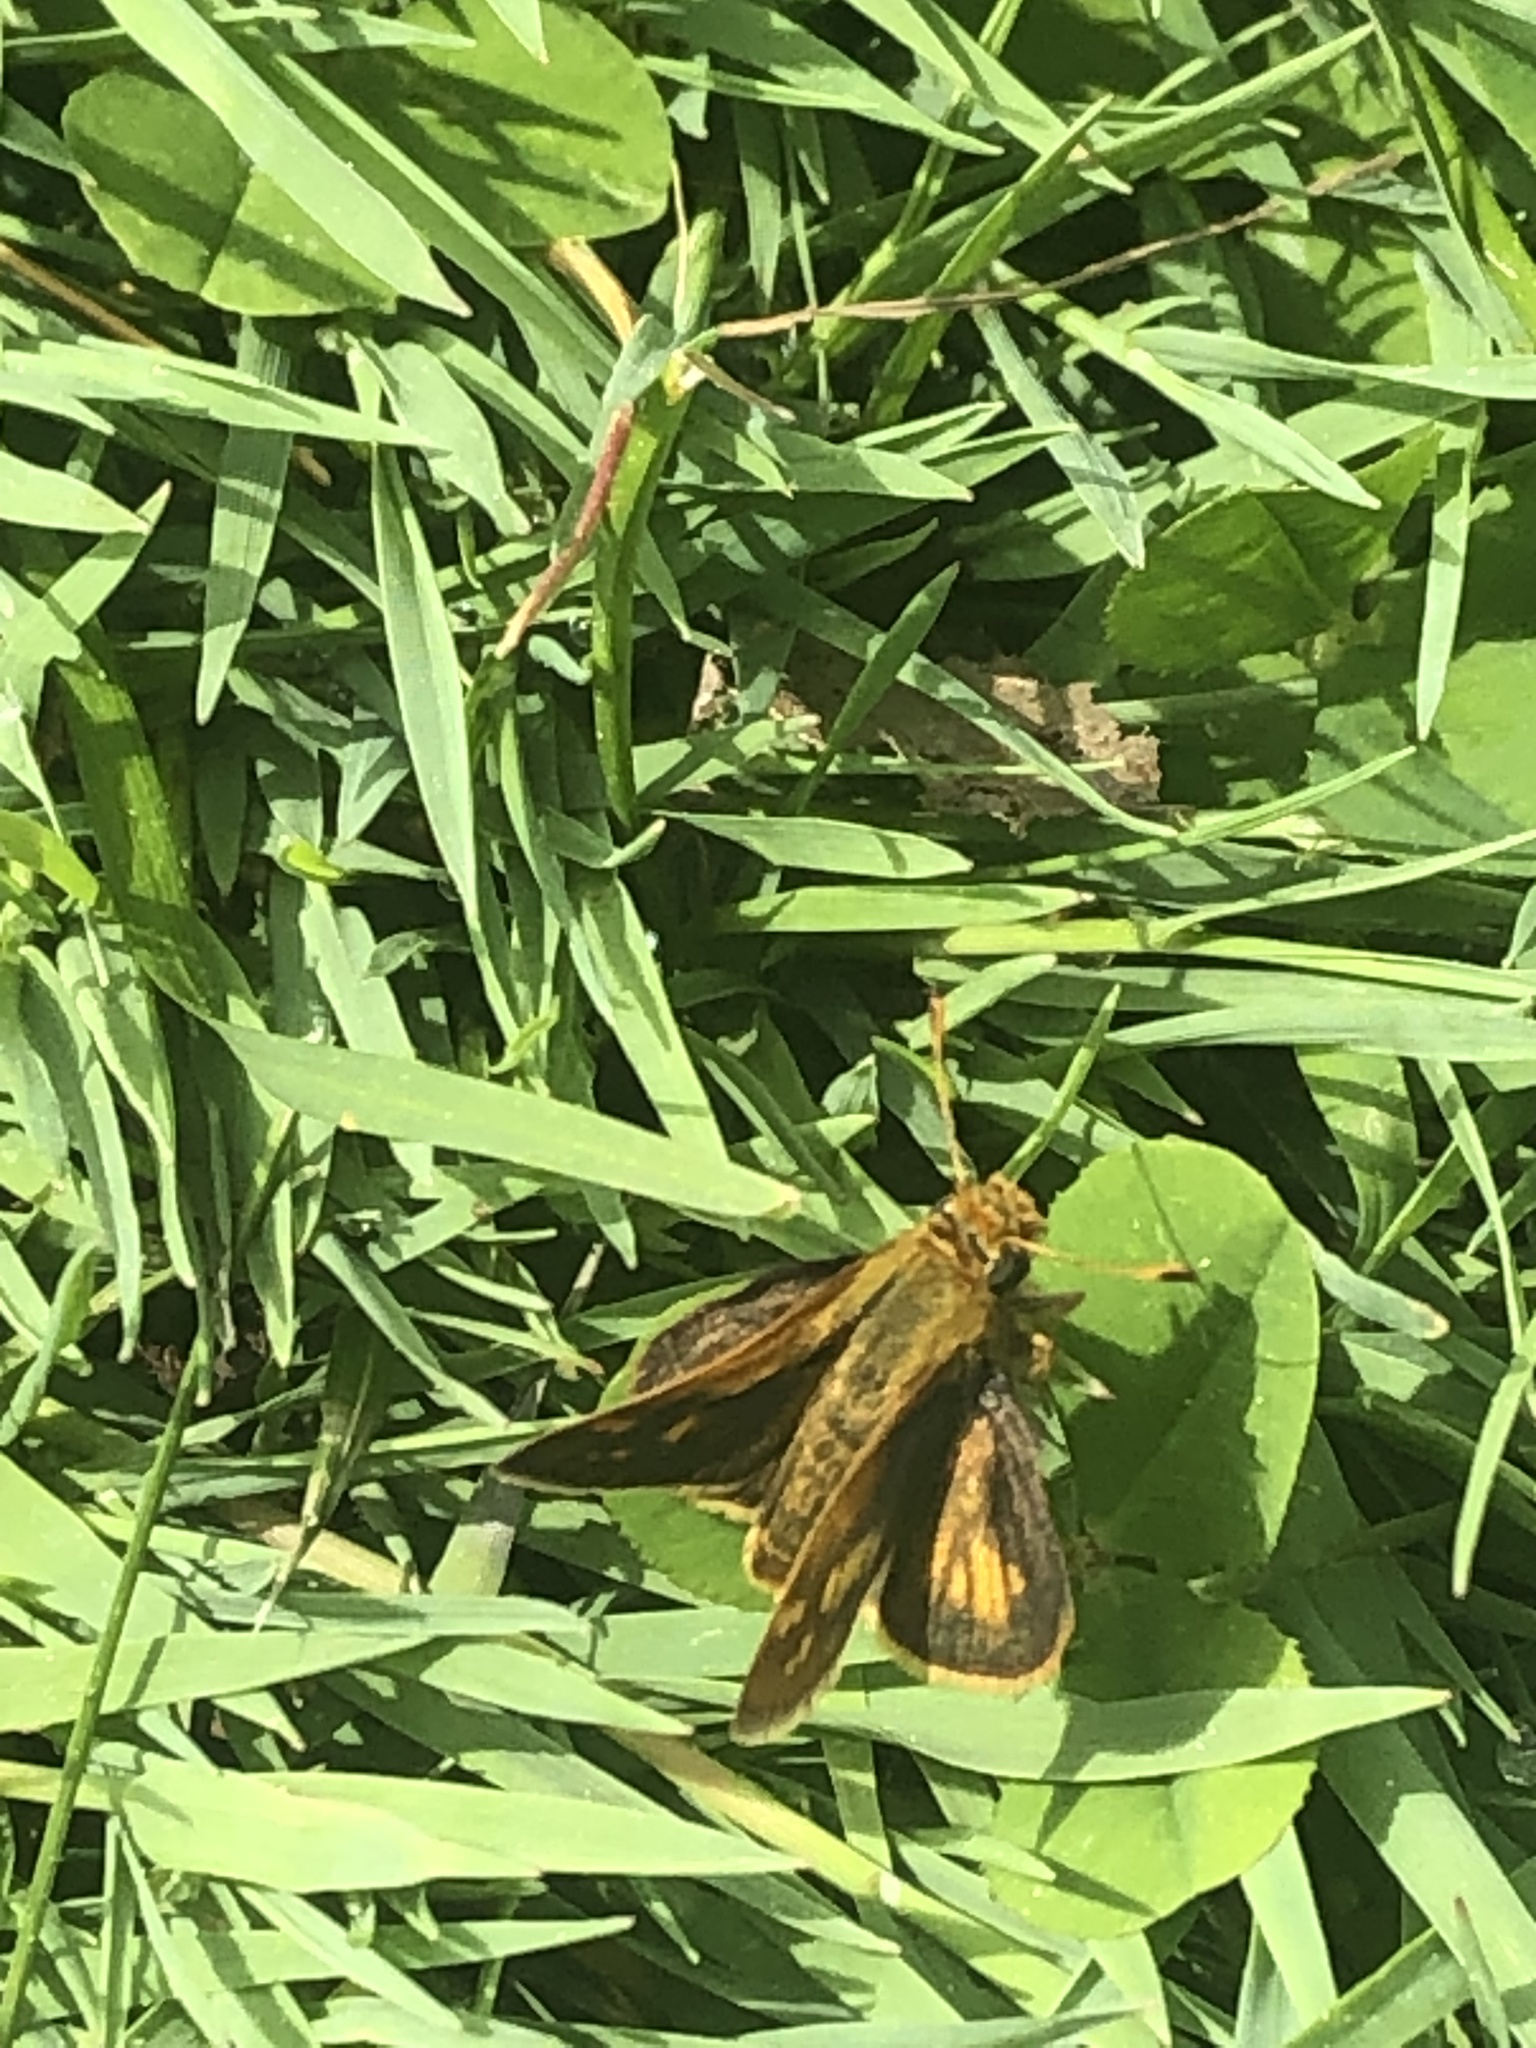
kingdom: Animalia
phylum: Arthropoda
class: Insecta
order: Lepidoptera
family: Hesperiidae
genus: Polites
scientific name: Polites coras
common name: Peck's skipper
